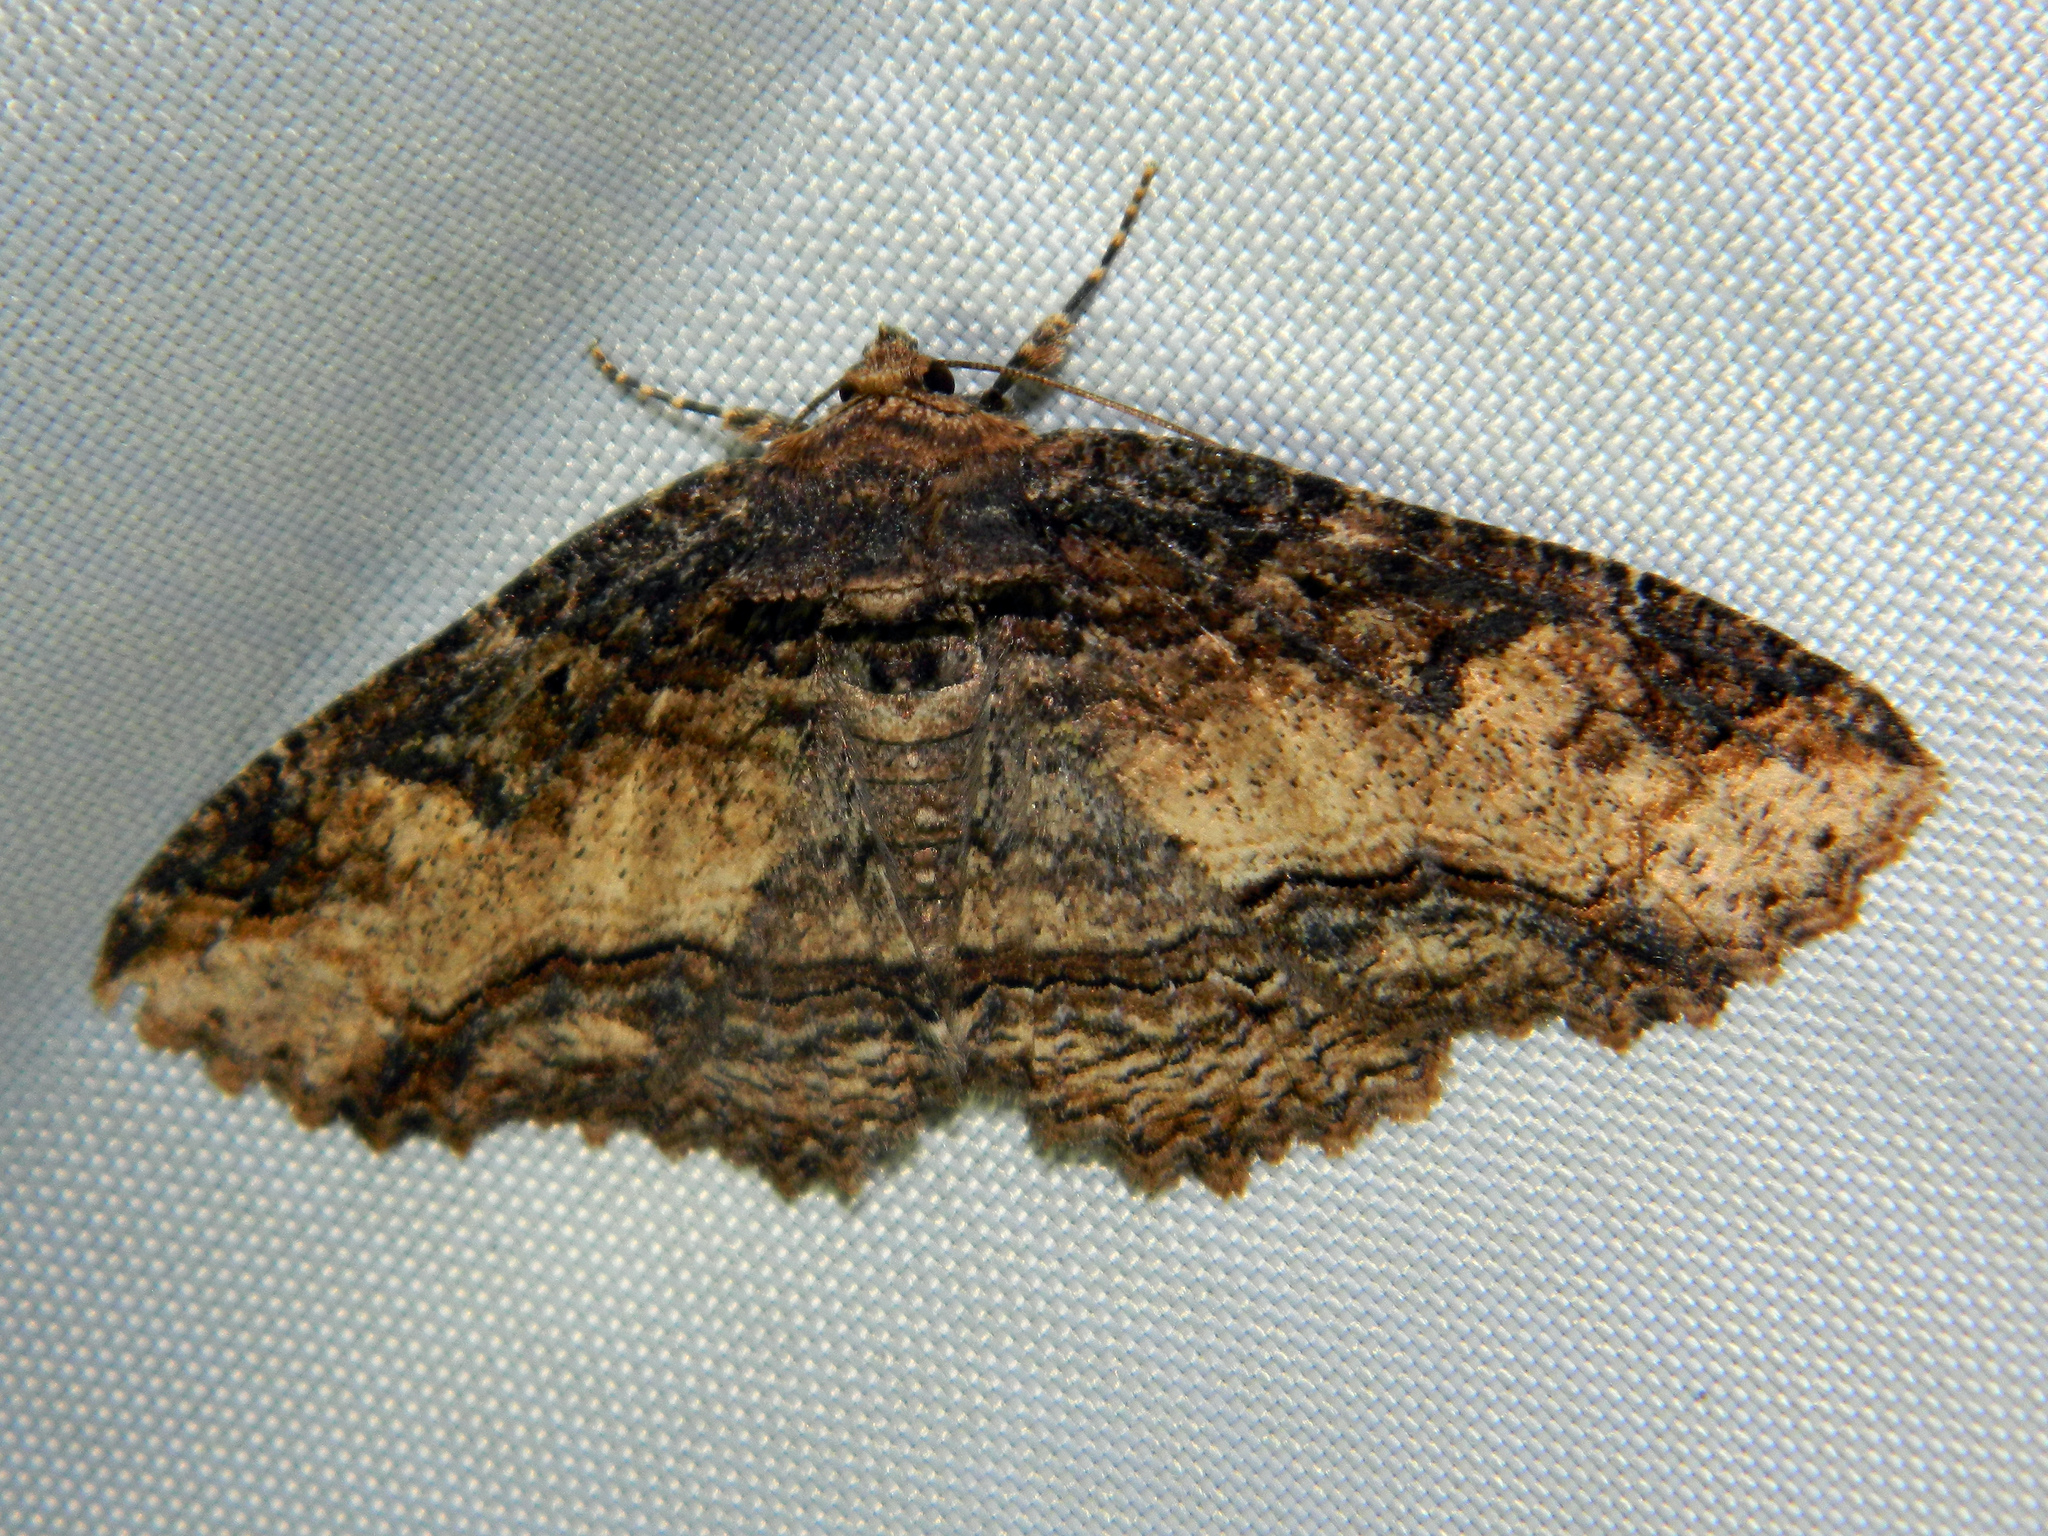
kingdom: Animalia
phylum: Arthropoda
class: Insecta
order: Lepidoptera
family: Erebidae
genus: Zale
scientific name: Zale minerea
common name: Colorful zale moth
